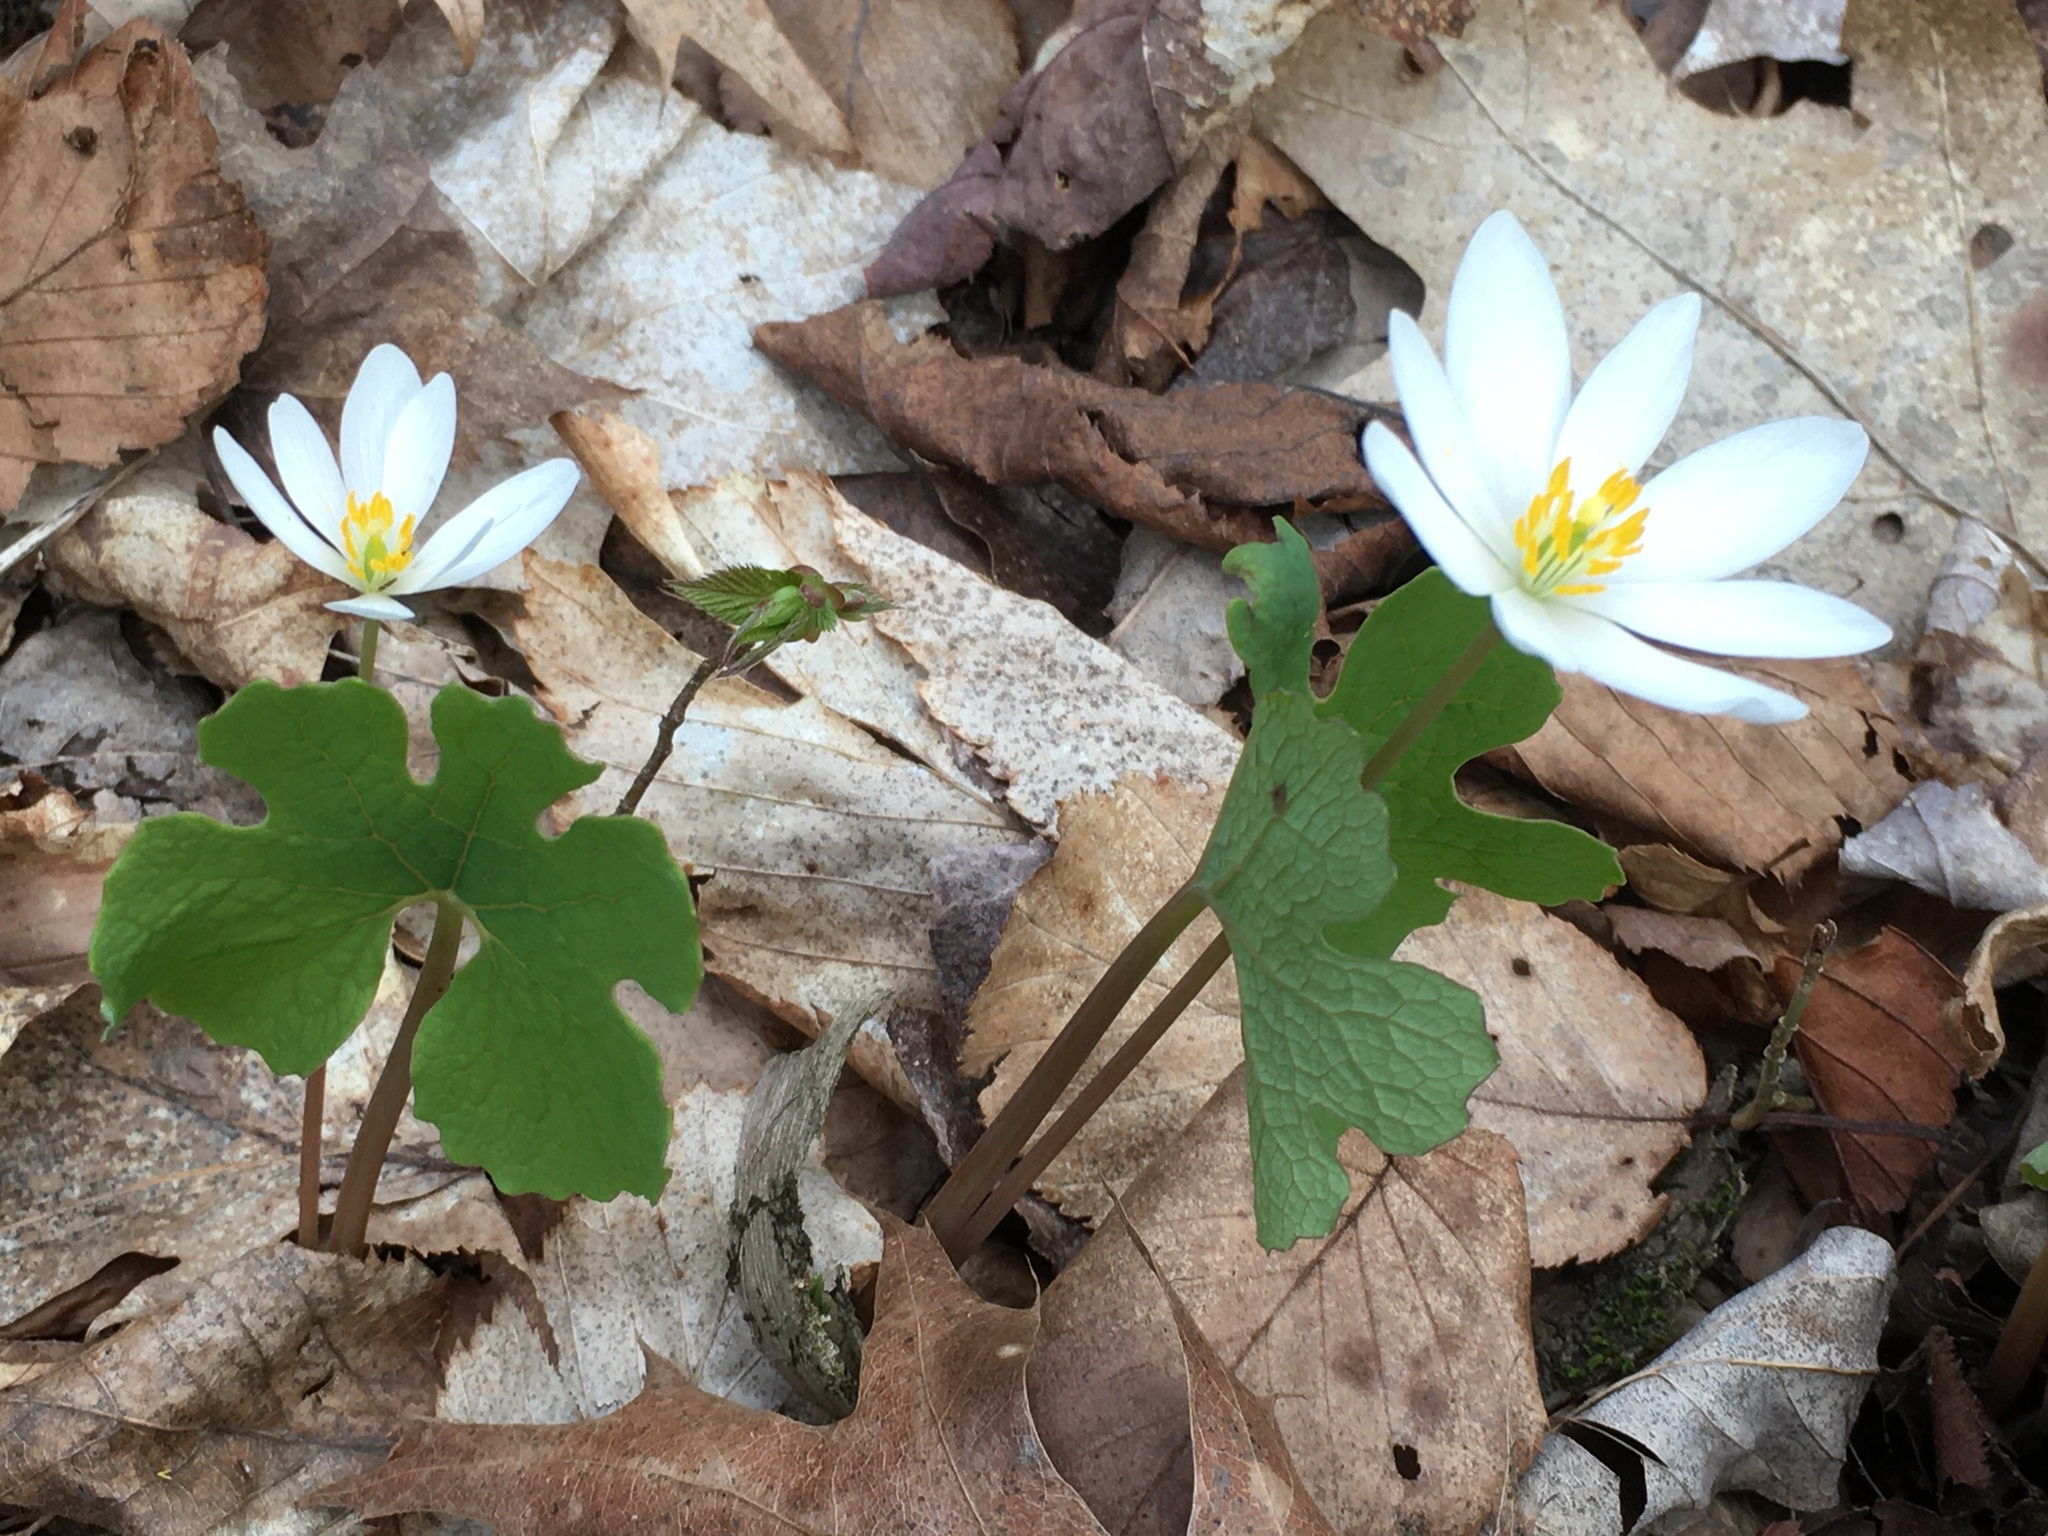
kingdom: Plantae
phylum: Tracheophyta
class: Magnoliopsida
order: Ranunculales
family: Papaveraceae
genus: Sanguinaria
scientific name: Sanguinaria canadensis
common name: Bloodroot
